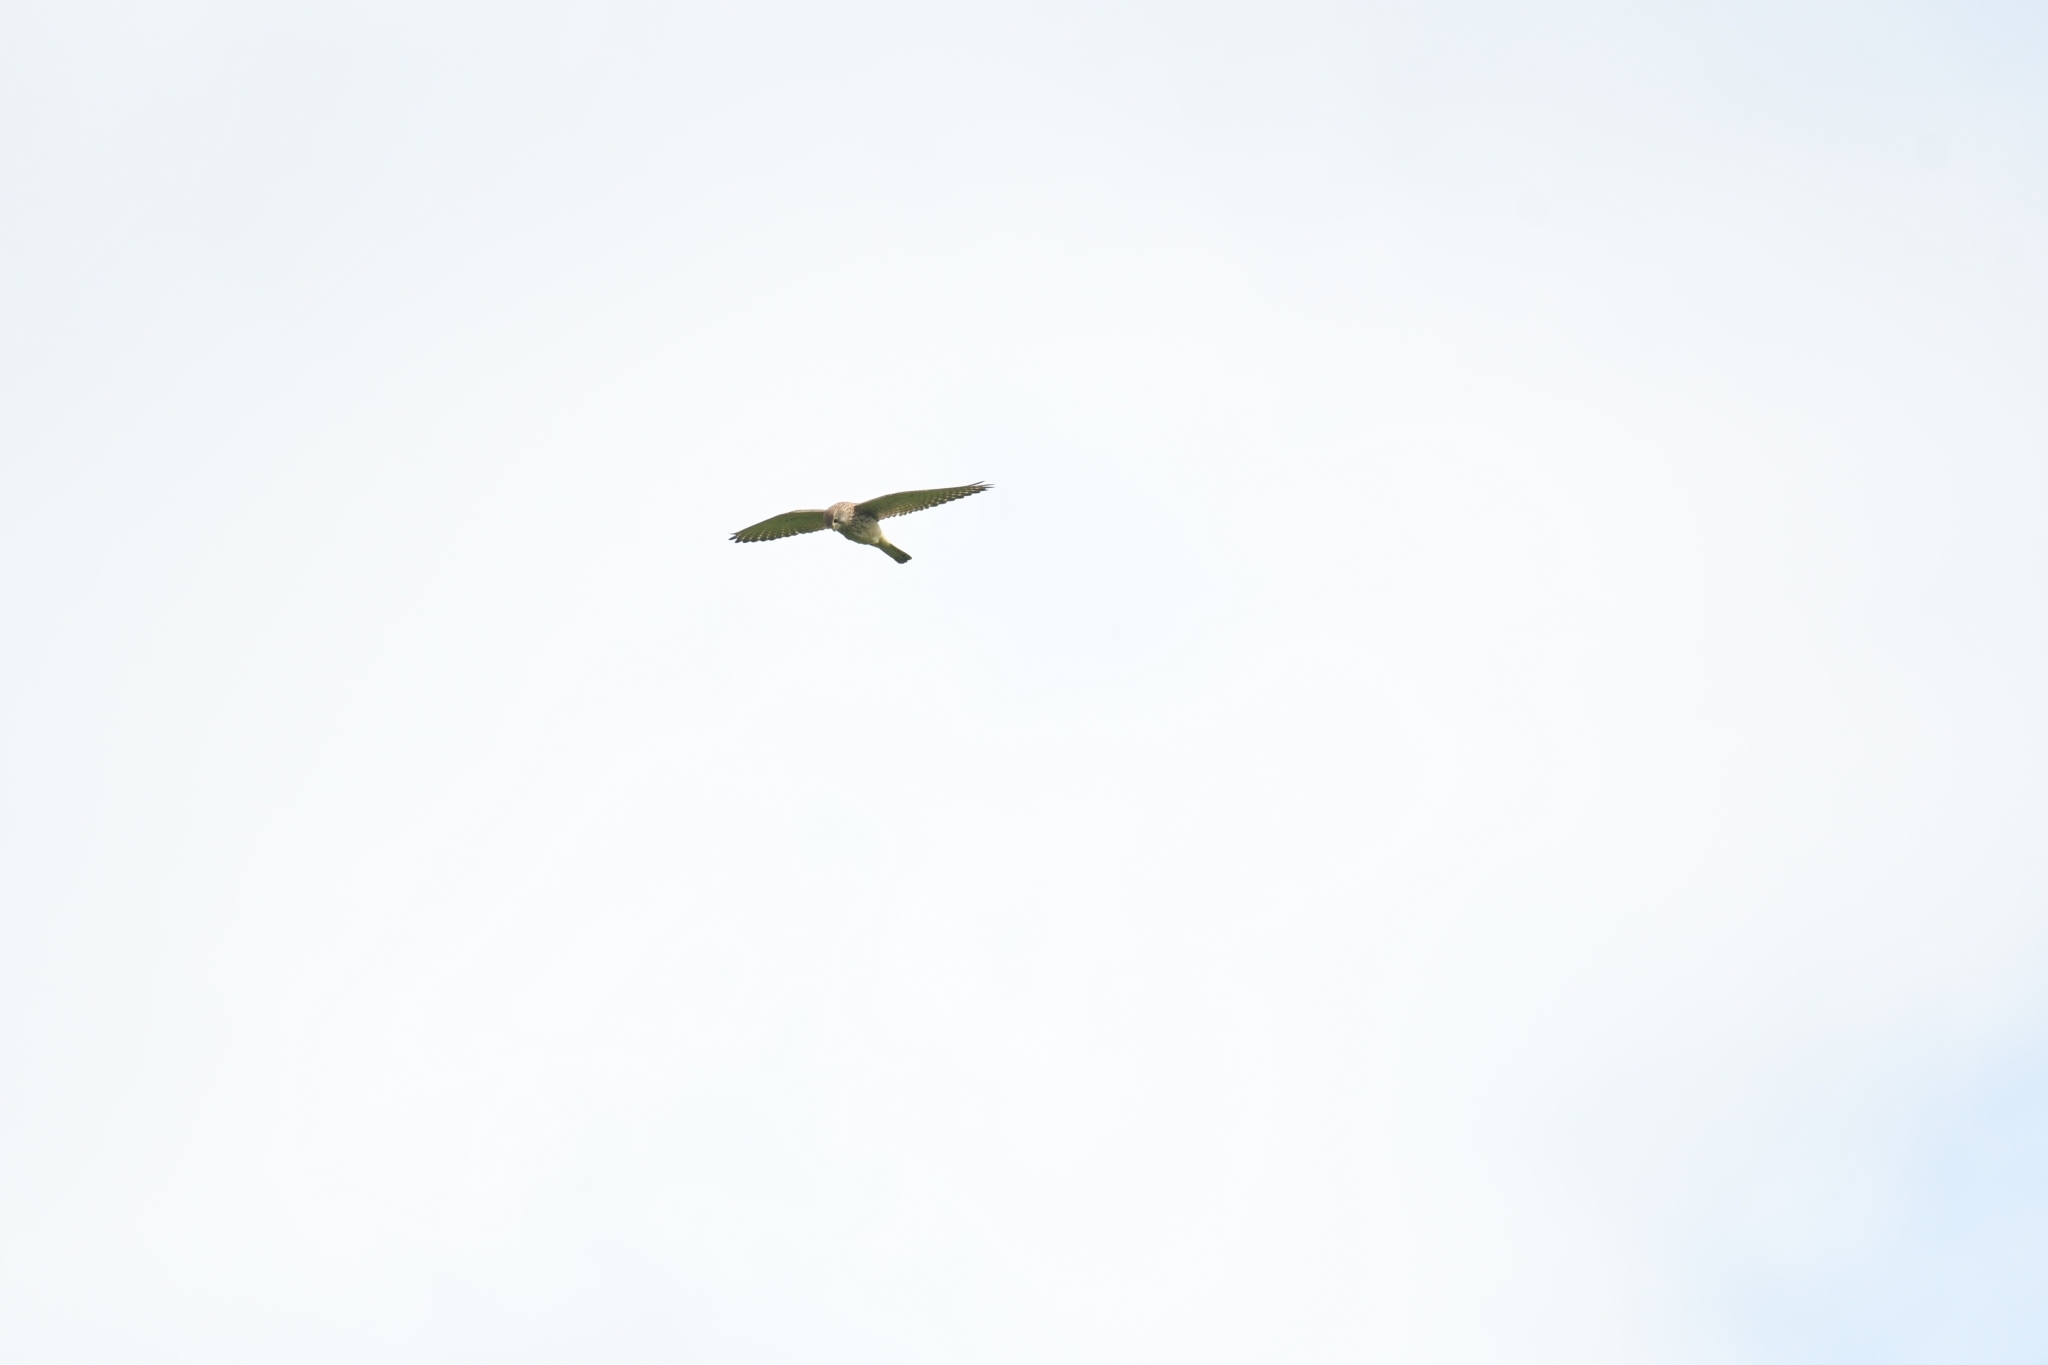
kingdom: Animalia
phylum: Chordata
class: Aves
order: Falconiformes
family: Falconidae
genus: Falco
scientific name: Falco tinnunculus
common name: Common kestrel
